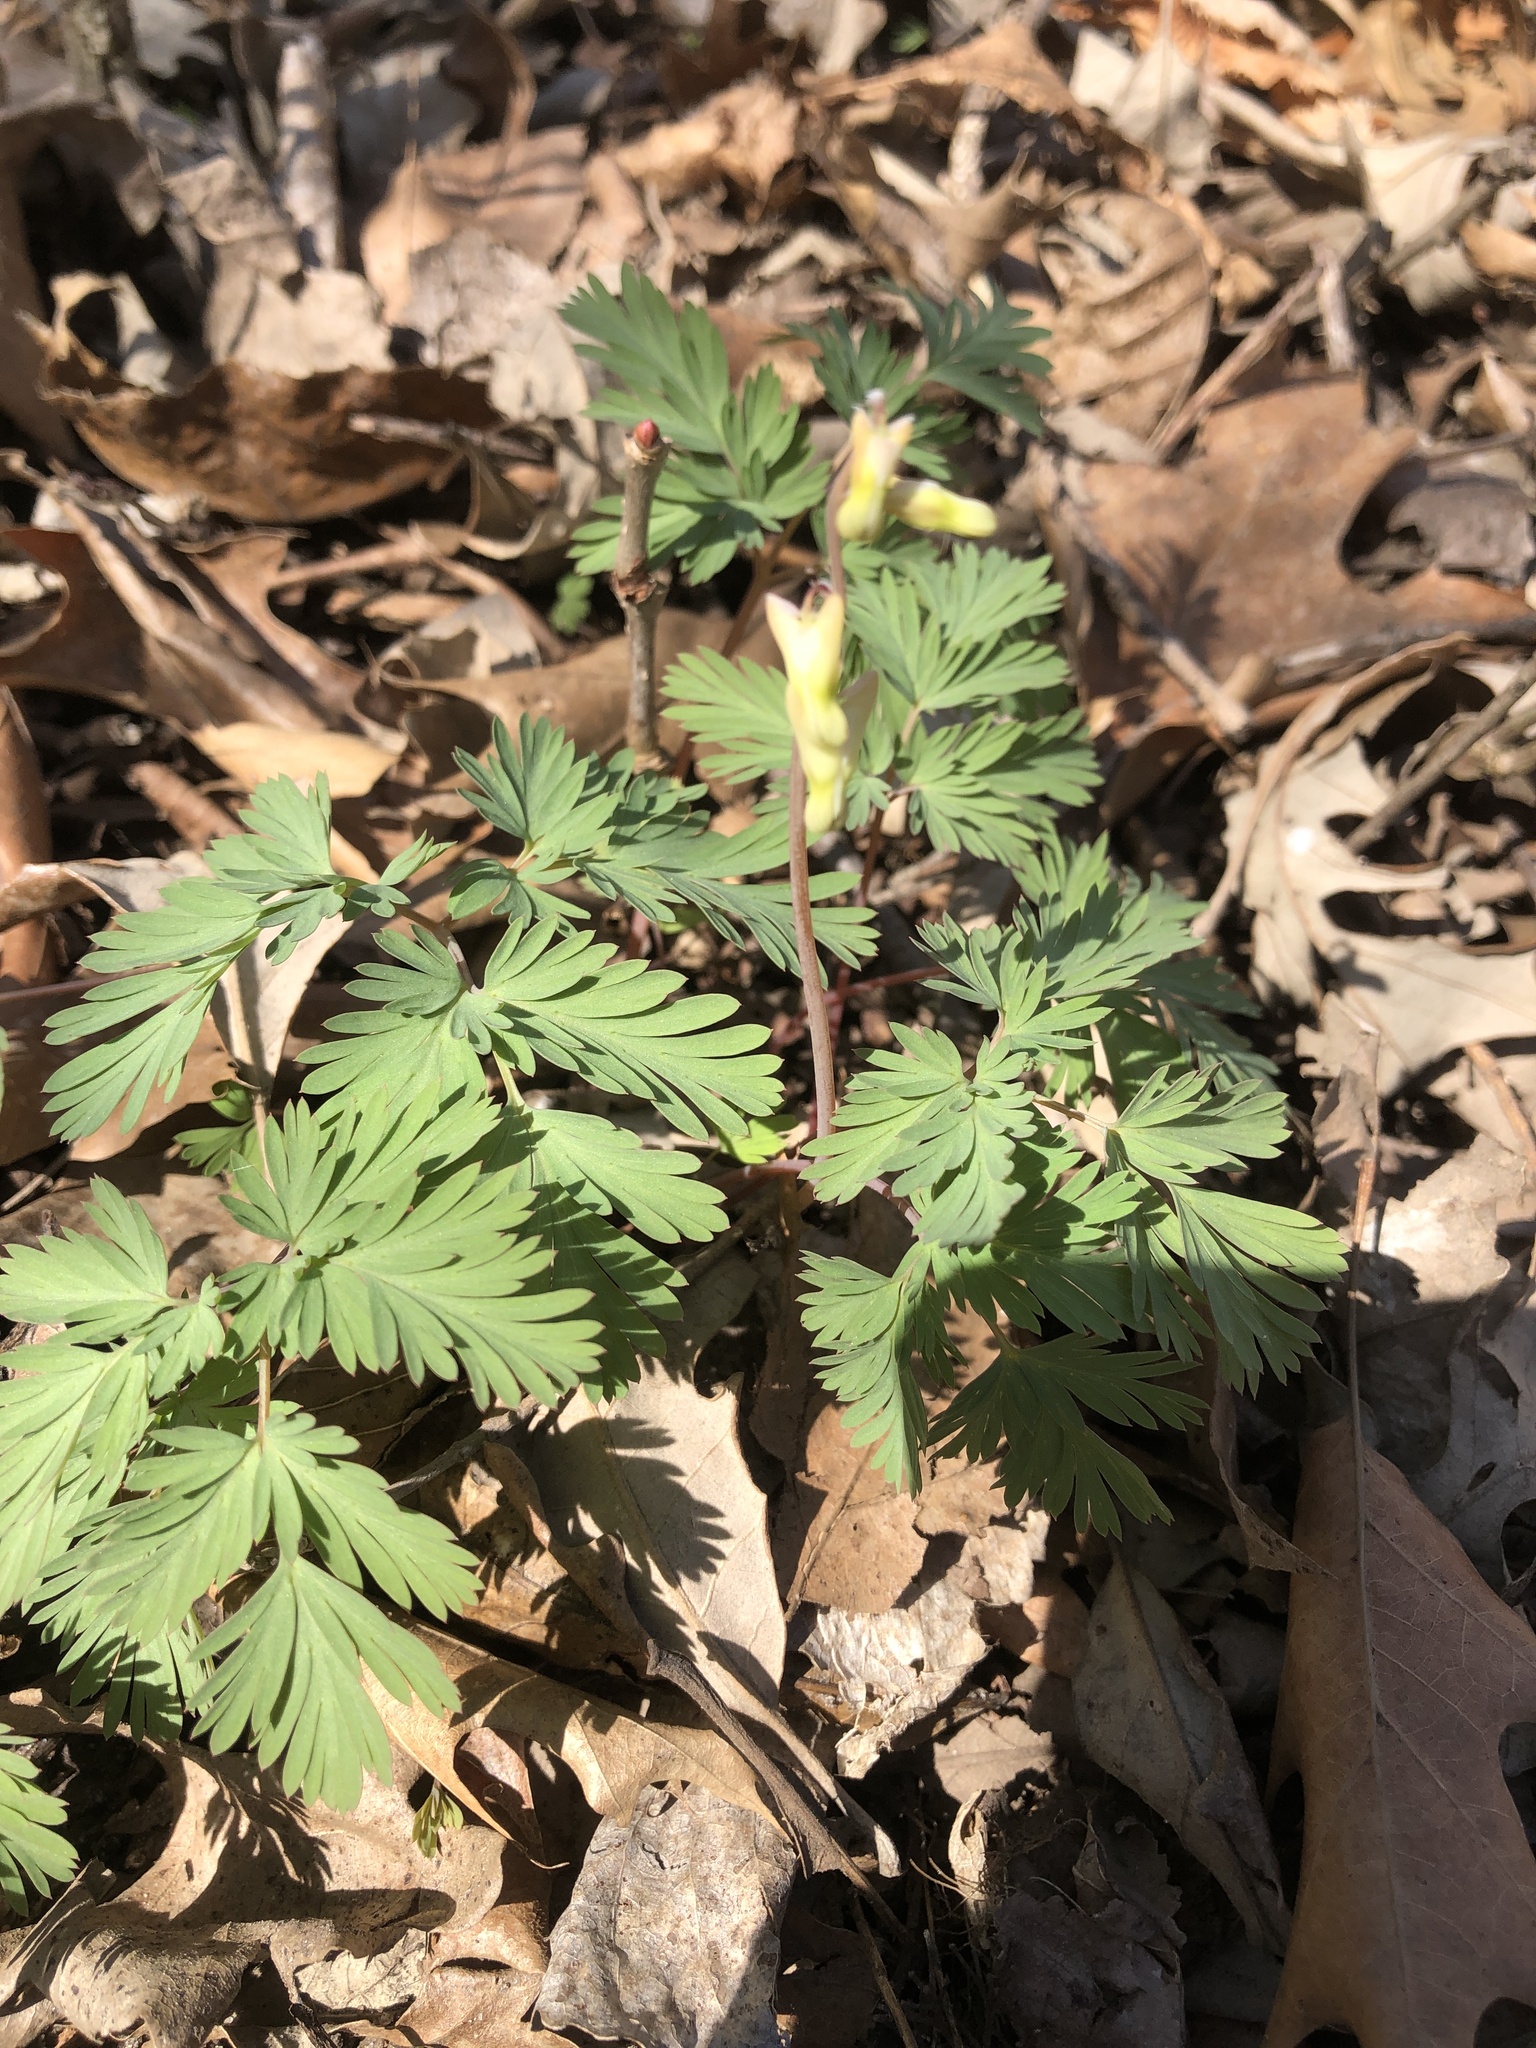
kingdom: Plantae
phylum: Tracheophyta
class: Magnoliopsida
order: Ranunculales
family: Papaveraceae
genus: Dicentra
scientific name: Dicentra cucullaria
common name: Dutchman's breeches
